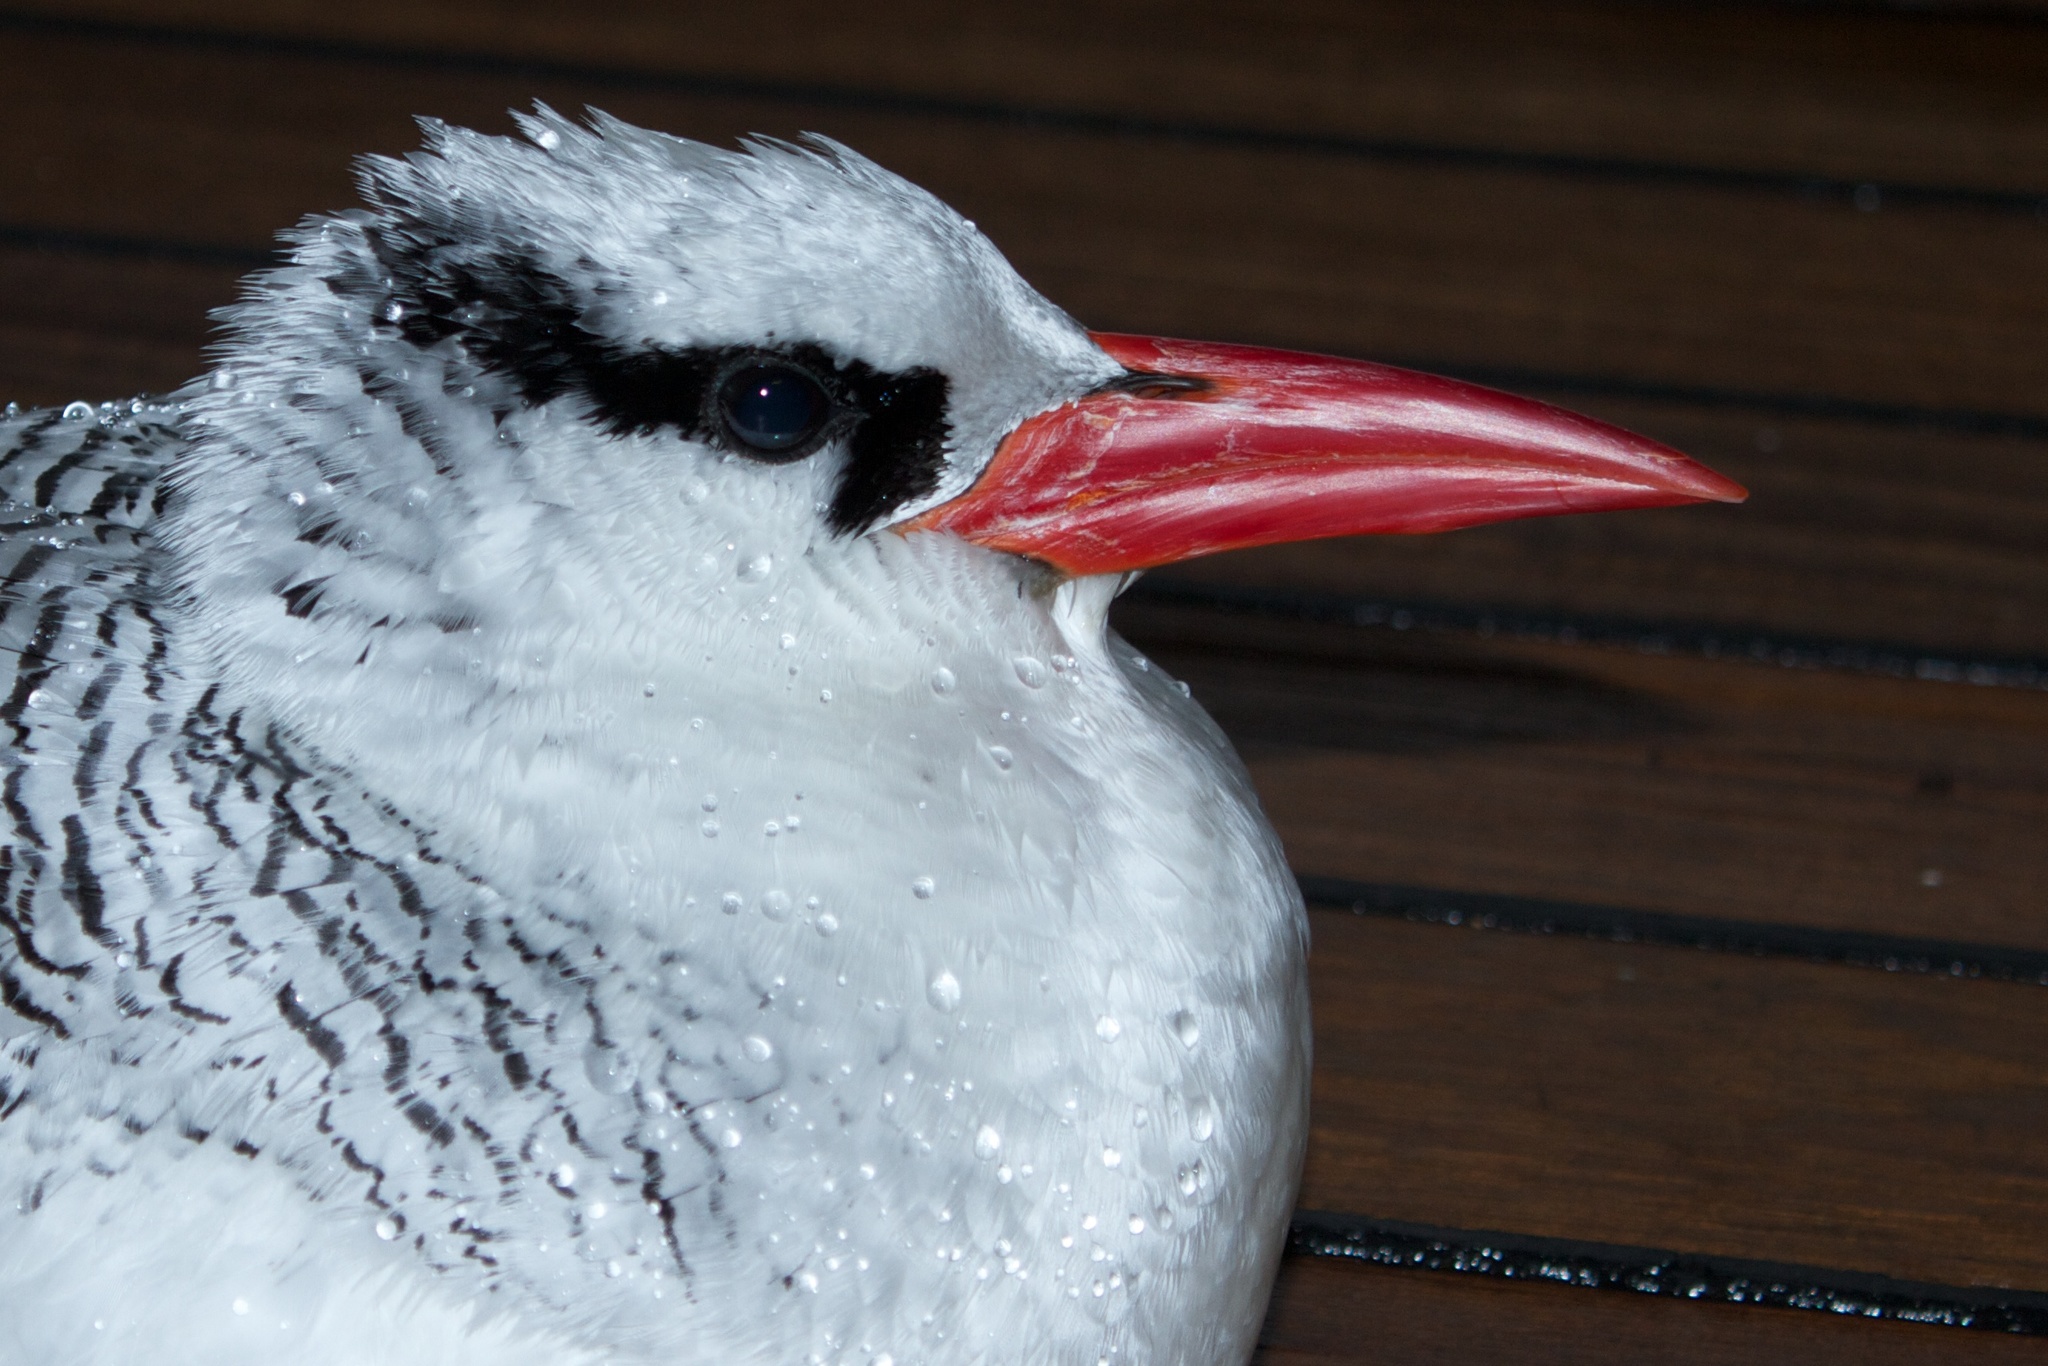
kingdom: Animalia
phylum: Chordata
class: Aves
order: Phaethontiformes
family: Phaethontidae
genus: Phaethon
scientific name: Phaethon aethereus
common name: Red-billed tropicbird
